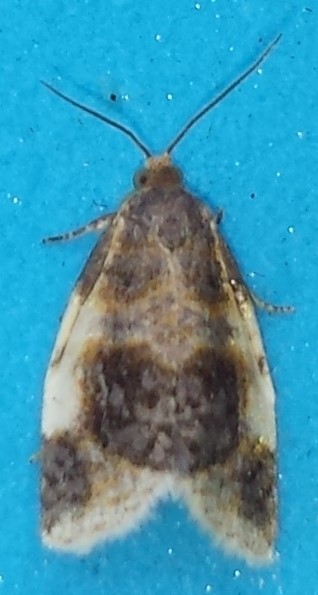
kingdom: Animalia
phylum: Arthropoda
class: Insecta
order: Lepidoptera
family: Tortricidae
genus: Clepsis
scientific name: Clepsis melaleucanus
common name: American apple tortrix
